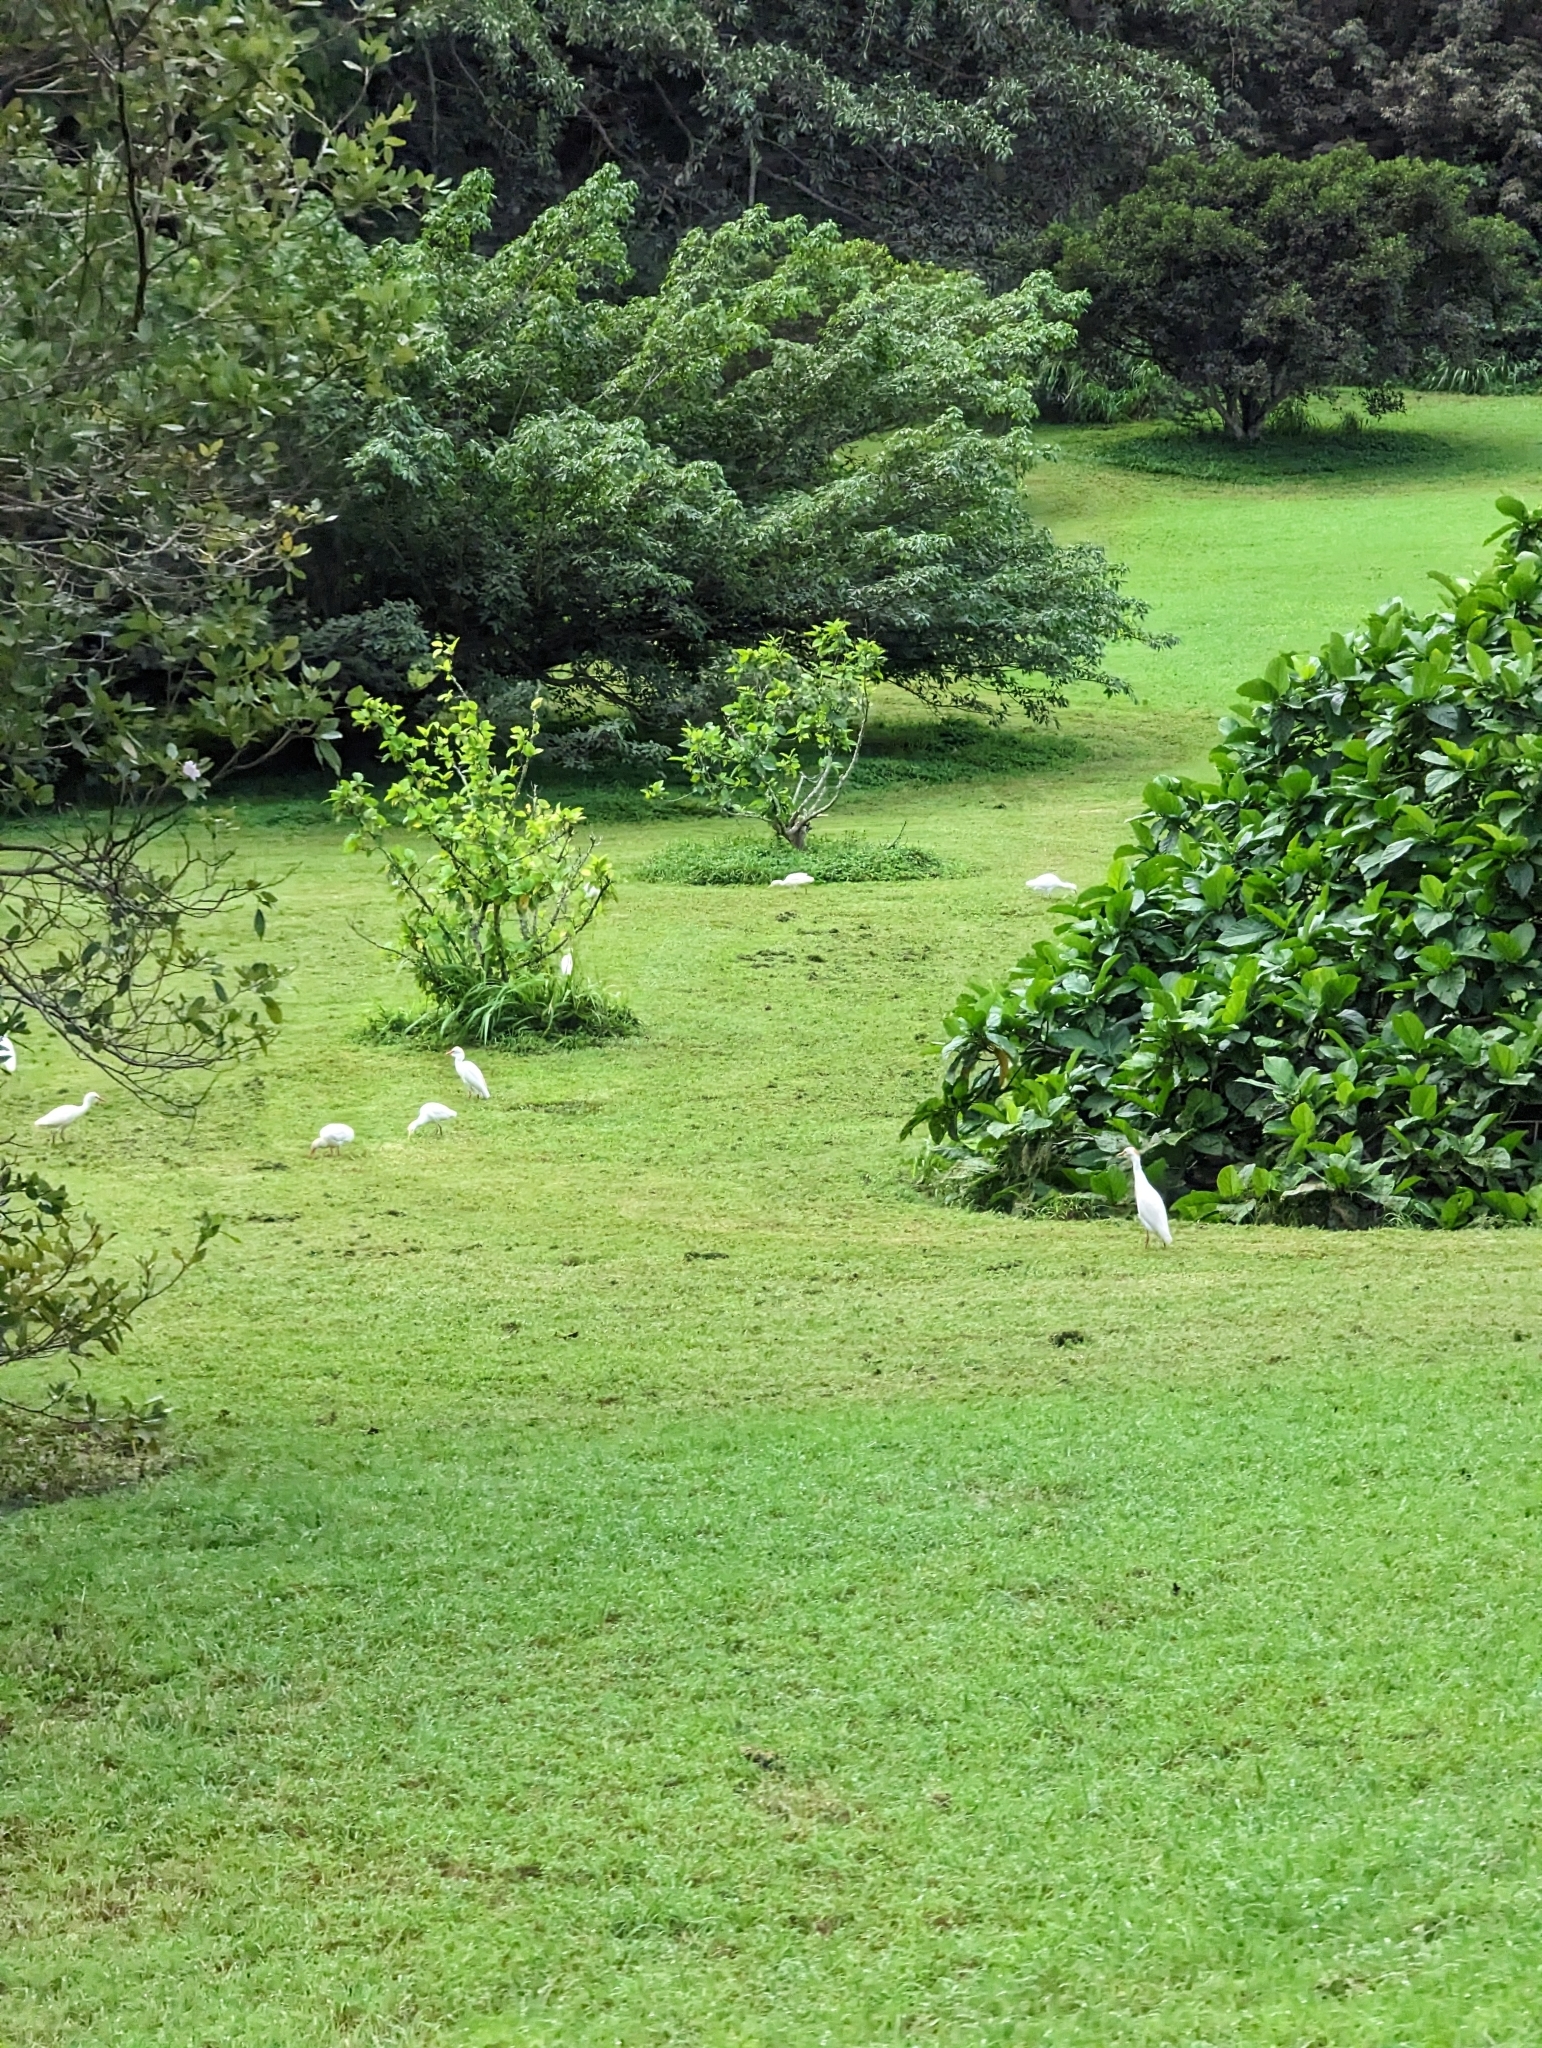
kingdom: Animalia
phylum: Chordata
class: Aves
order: Pelecaniformes
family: Ardeidae
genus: Bubulcus
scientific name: Bubulcus ibis
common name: Cattle egret
